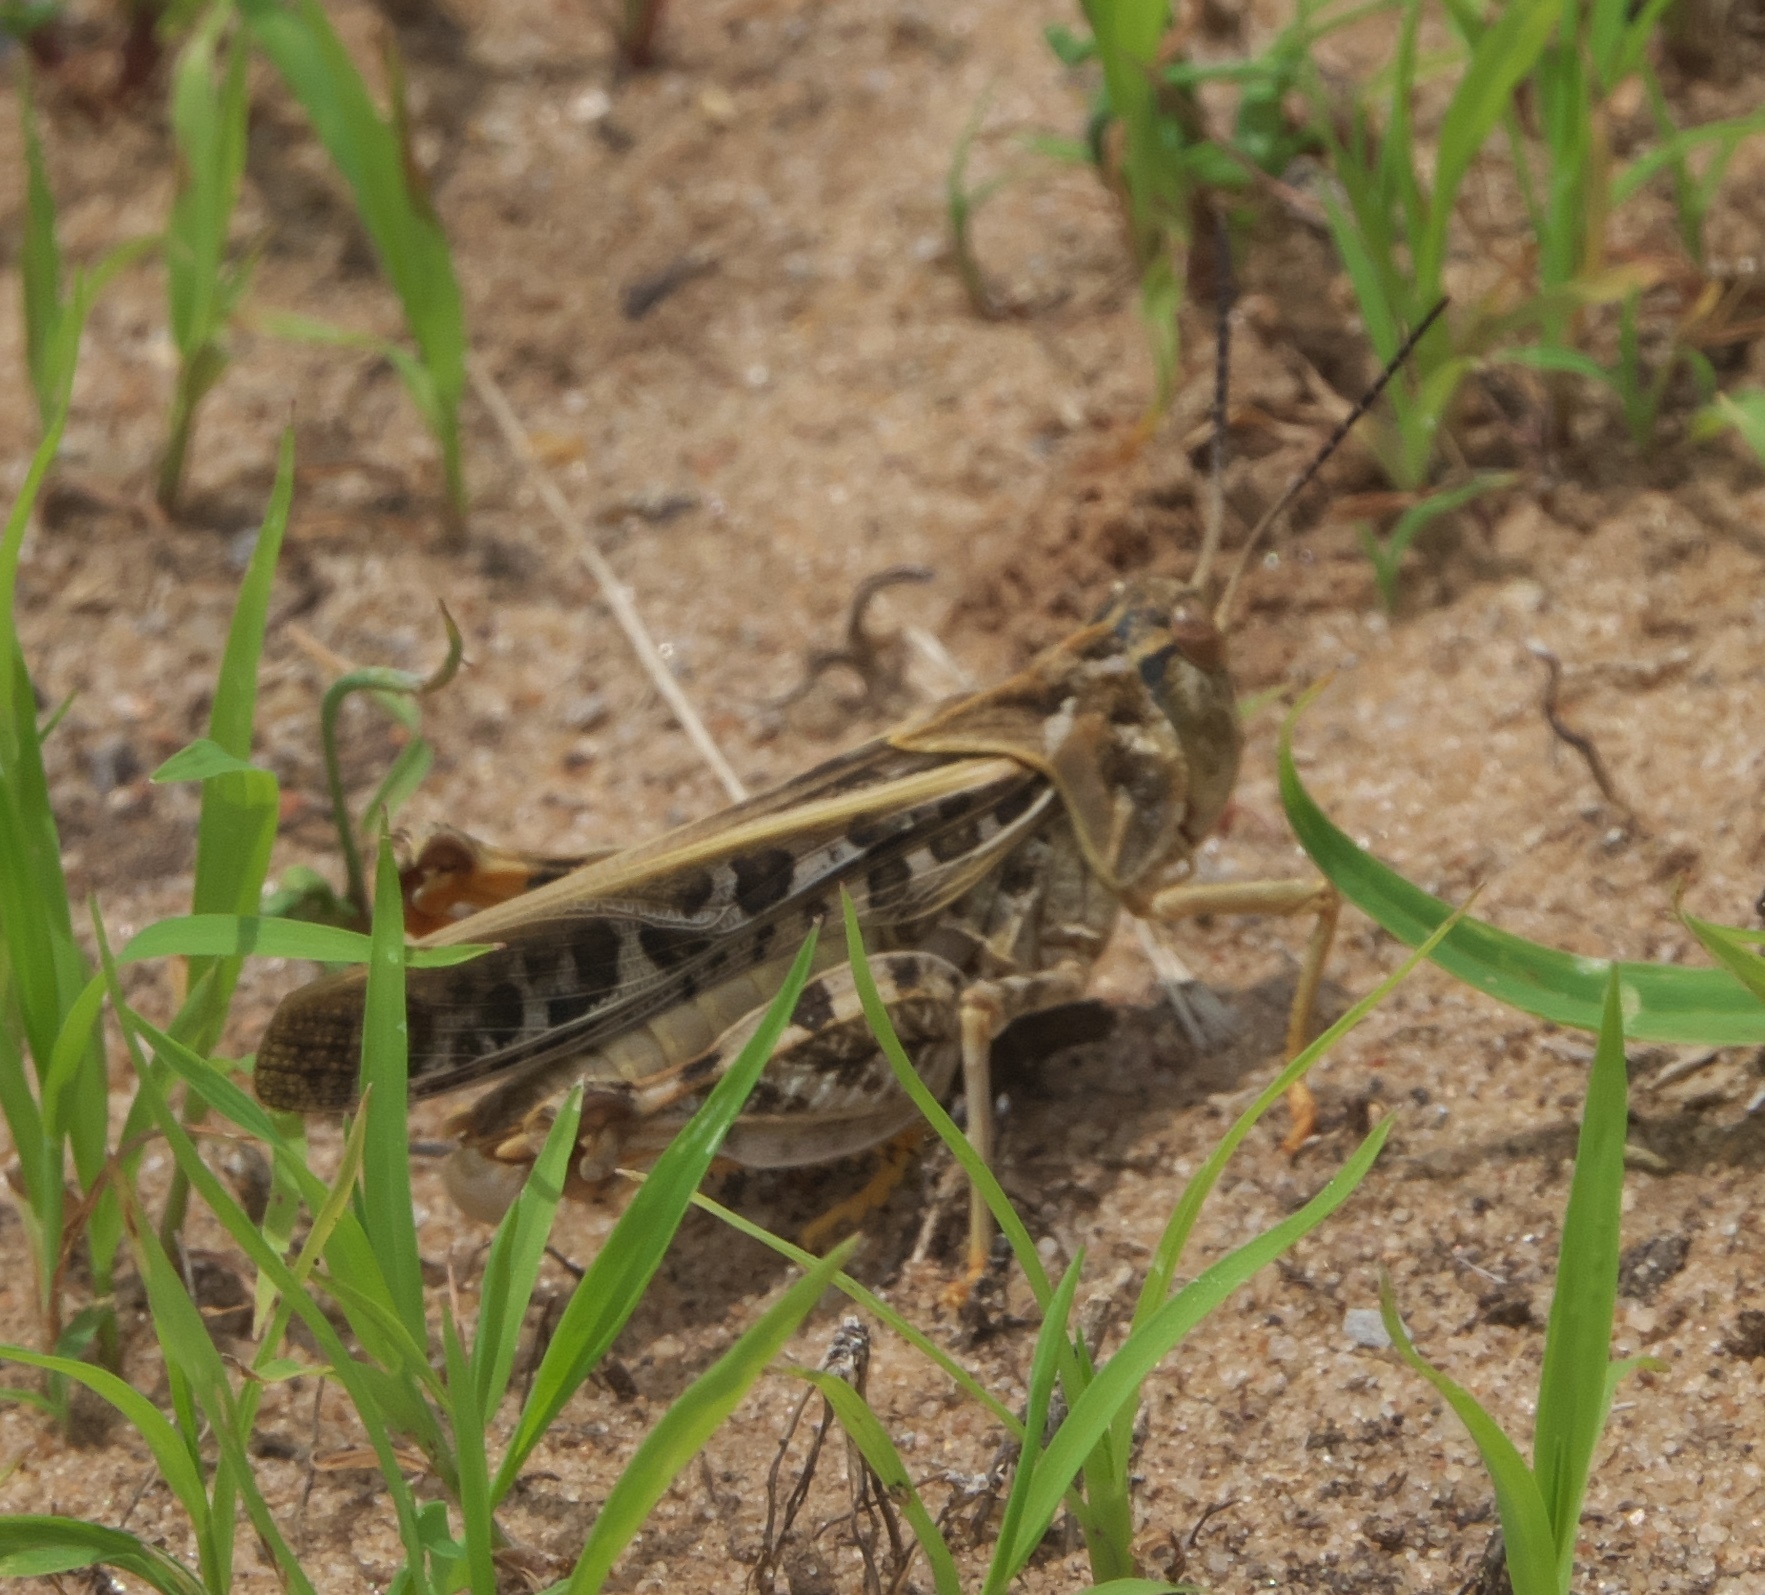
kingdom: Animalia
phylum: Arthropoda
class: Insecta
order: Orthoptera
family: Acrididae
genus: Pardalophora
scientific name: Pardalophora saussurei
